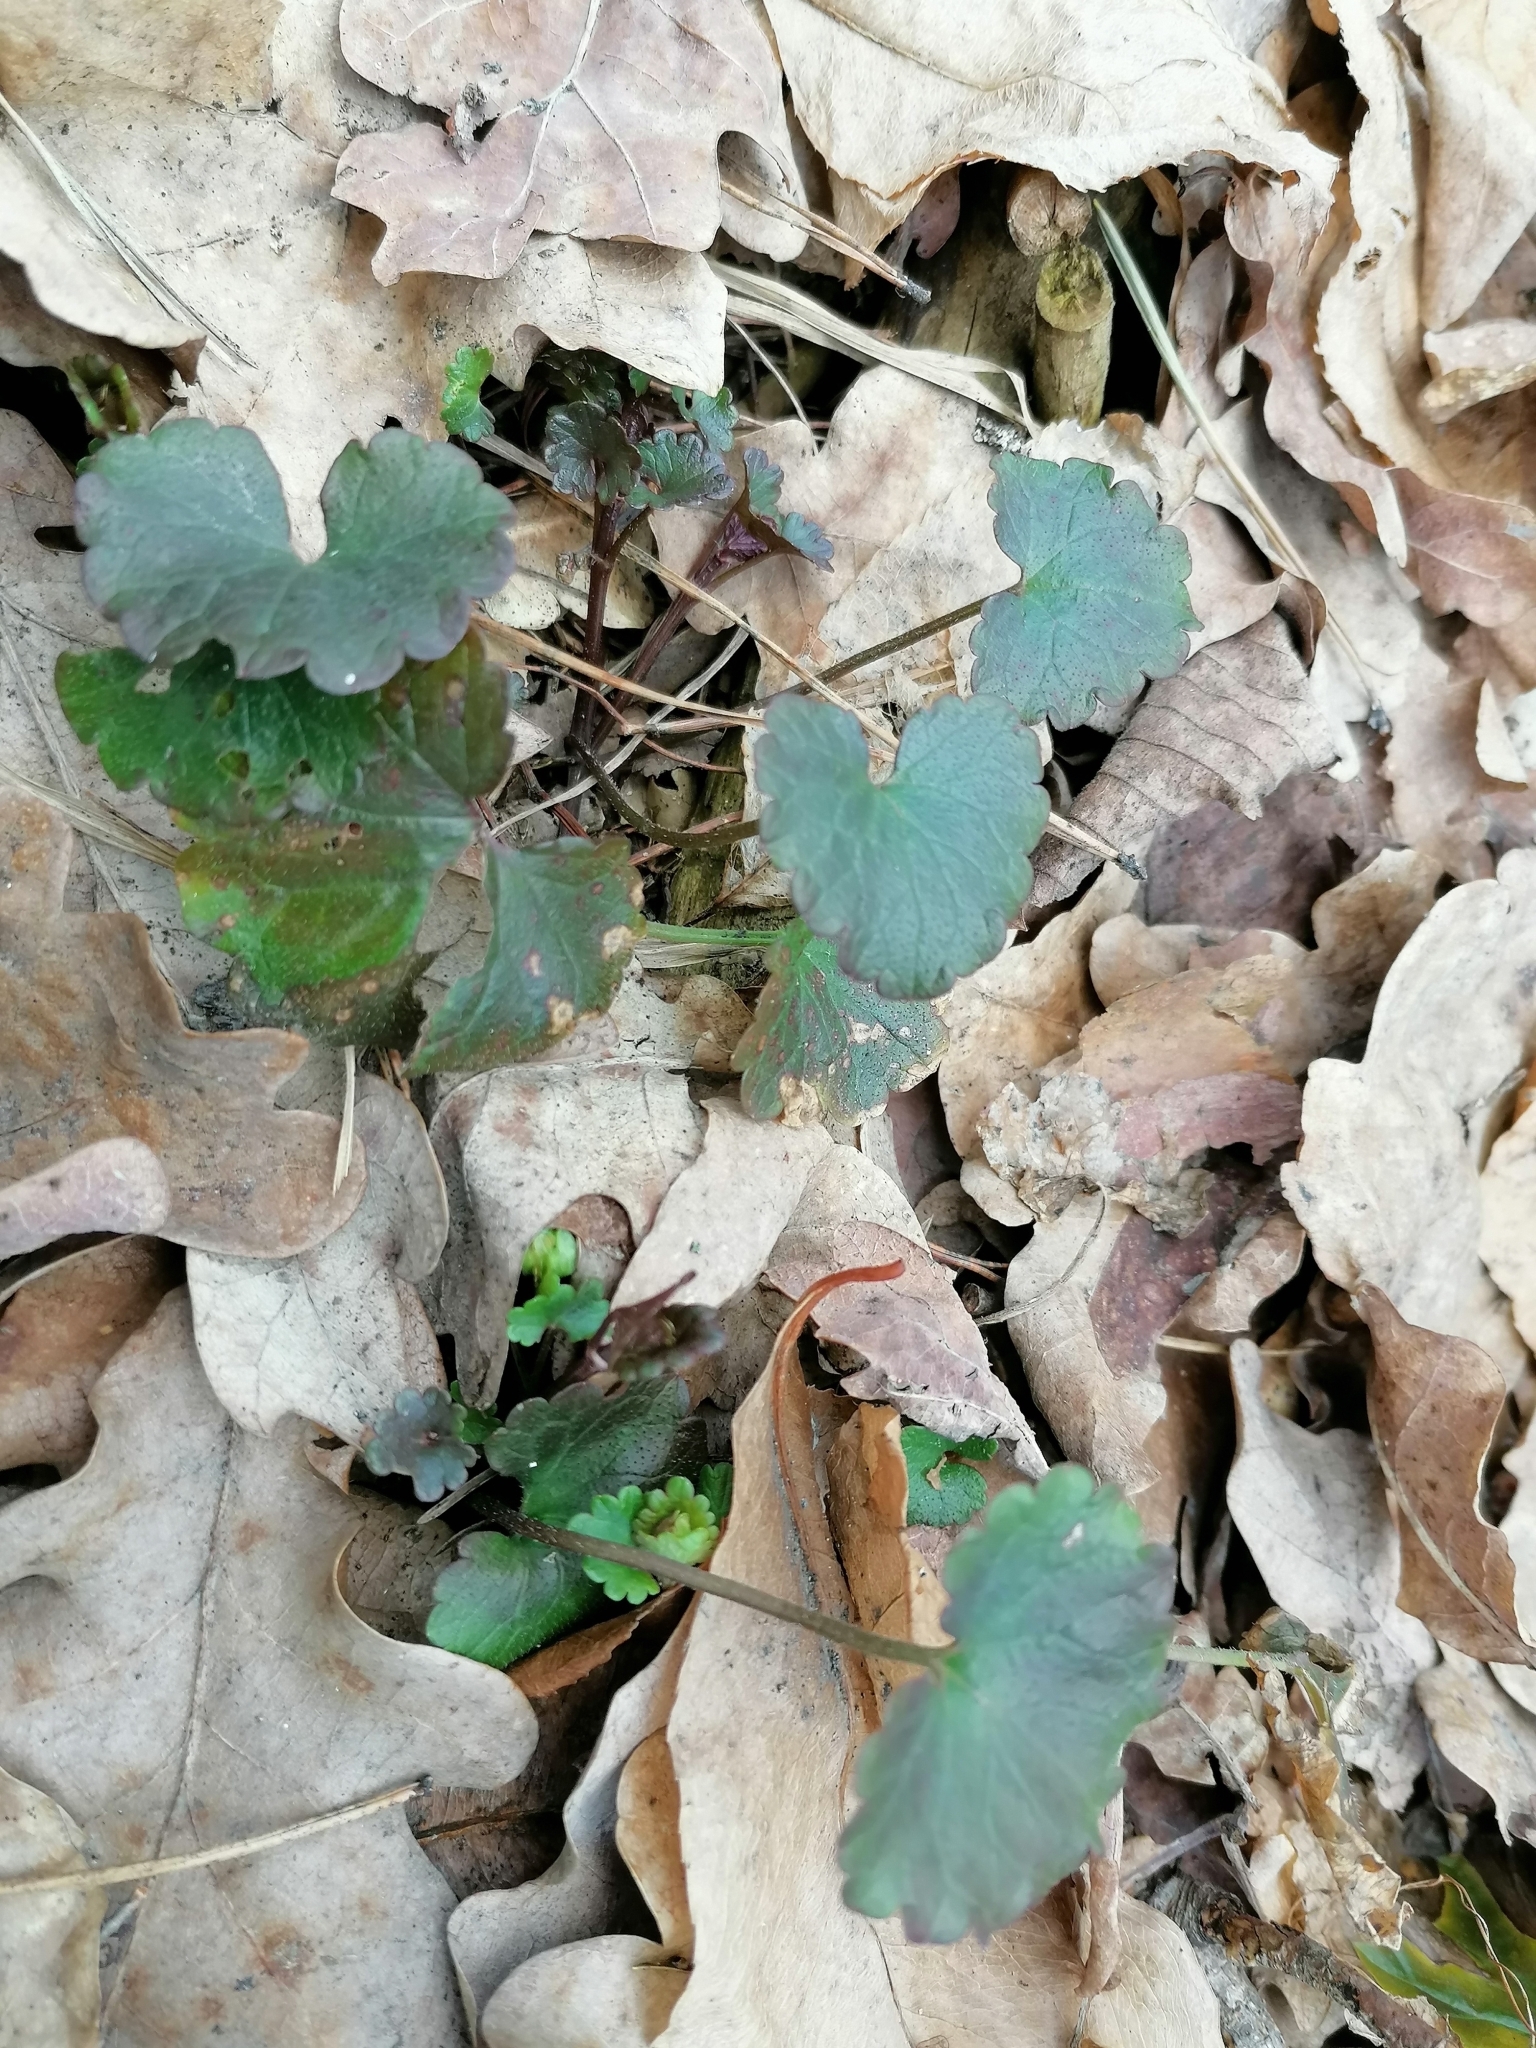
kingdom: Plantae
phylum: Tracheophyta
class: Magnoliopsida
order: Brassicales
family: Brassicaceae
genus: Alliaria
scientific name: Alliaria petiolata
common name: Garlic mustard
